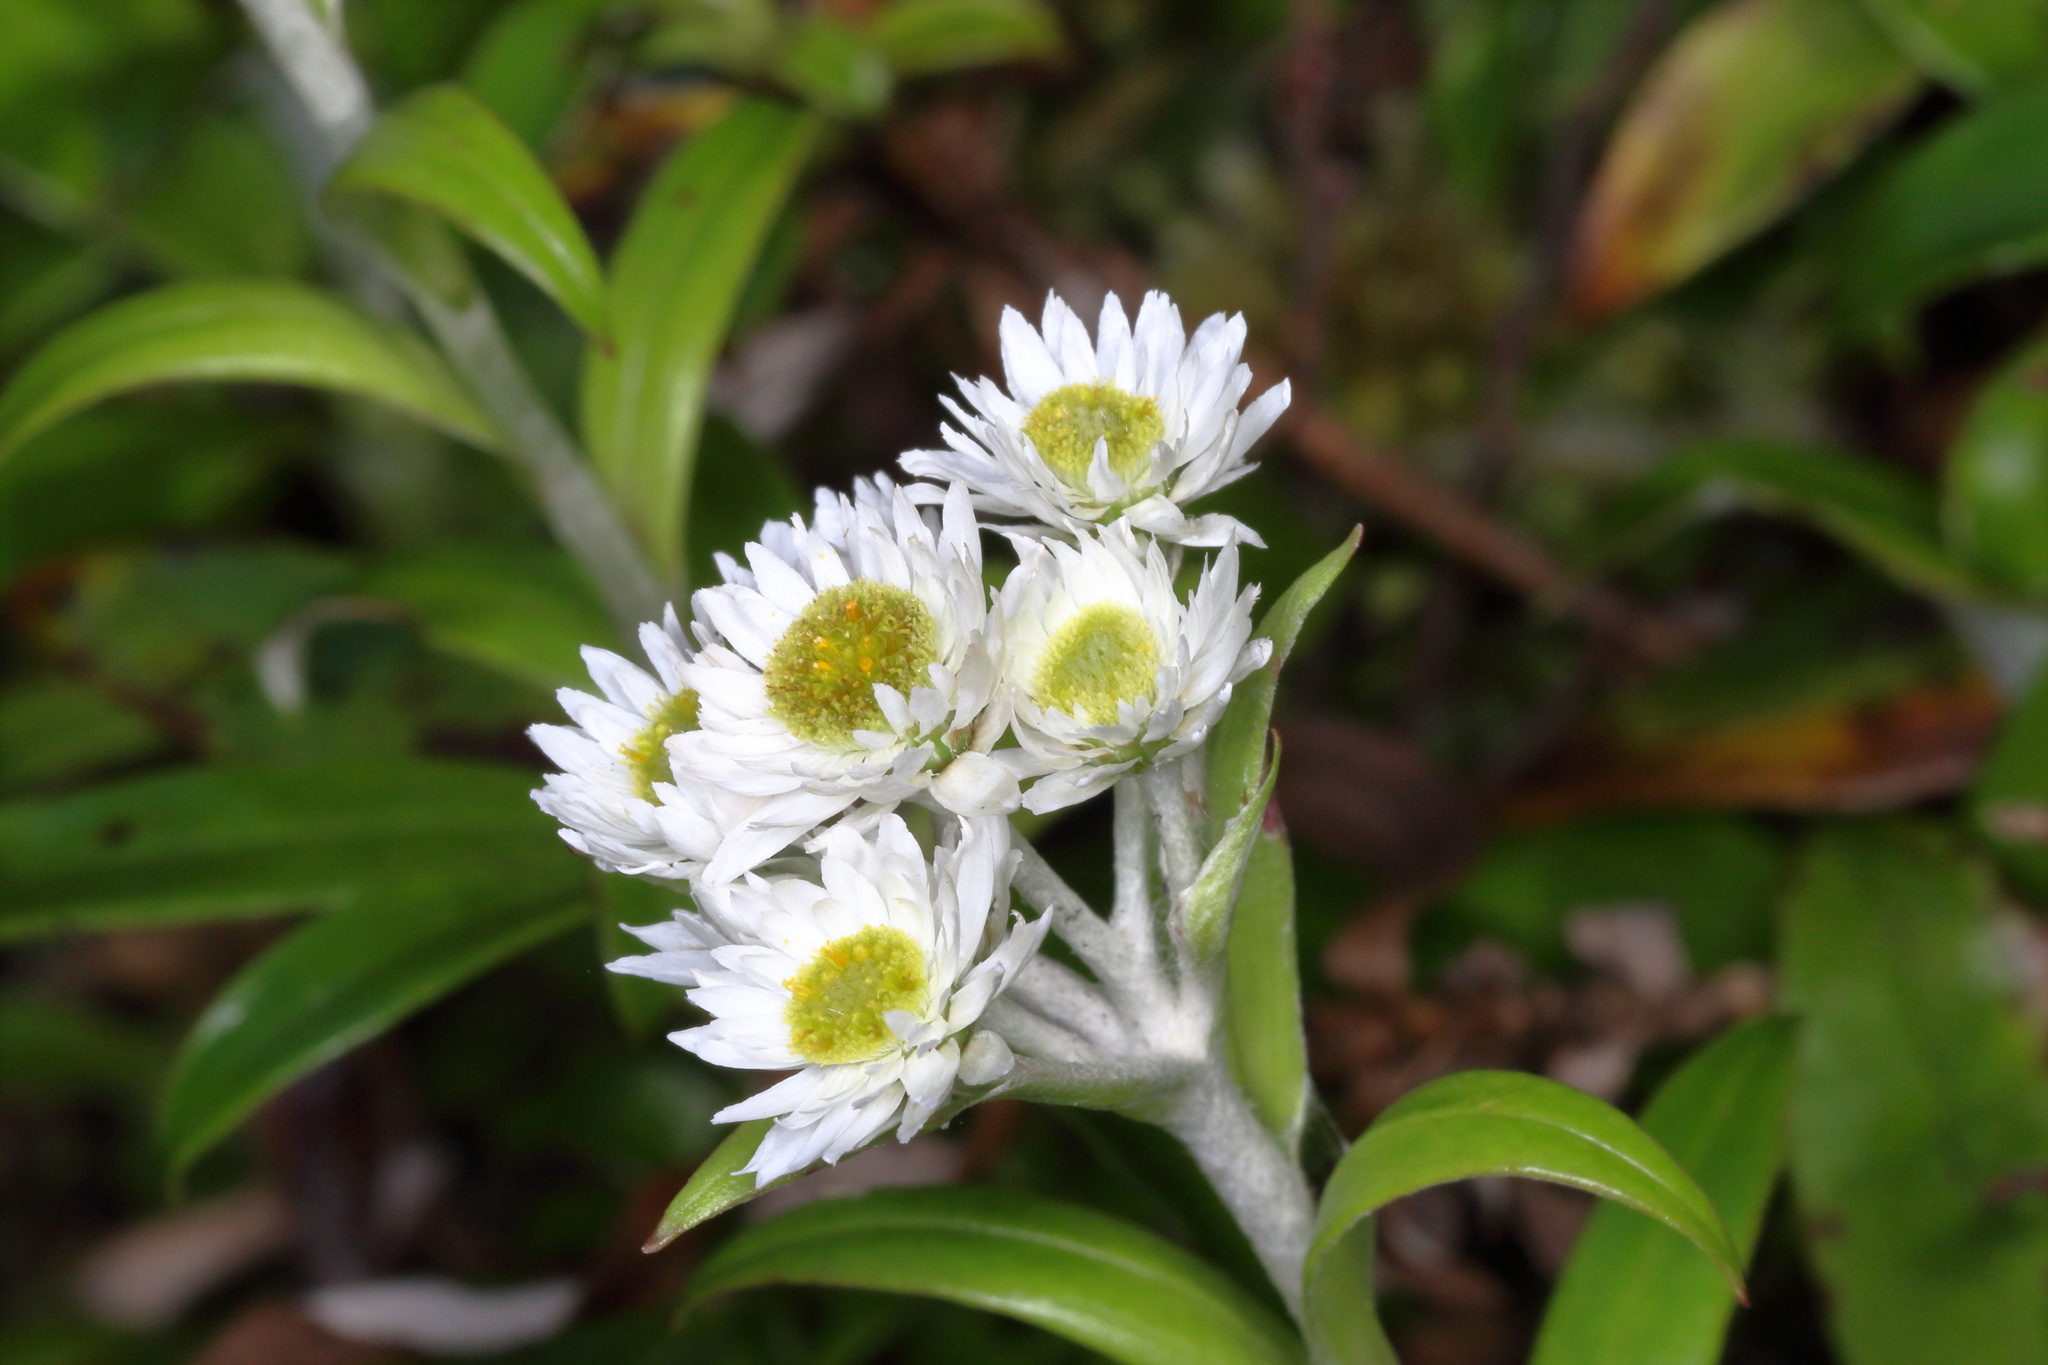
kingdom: Plantae
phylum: Tracheophyta
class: Magnoliopsida
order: Asterales
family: Asteraceae
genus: Anaphalioides
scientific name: Anaphalioides trinervis
